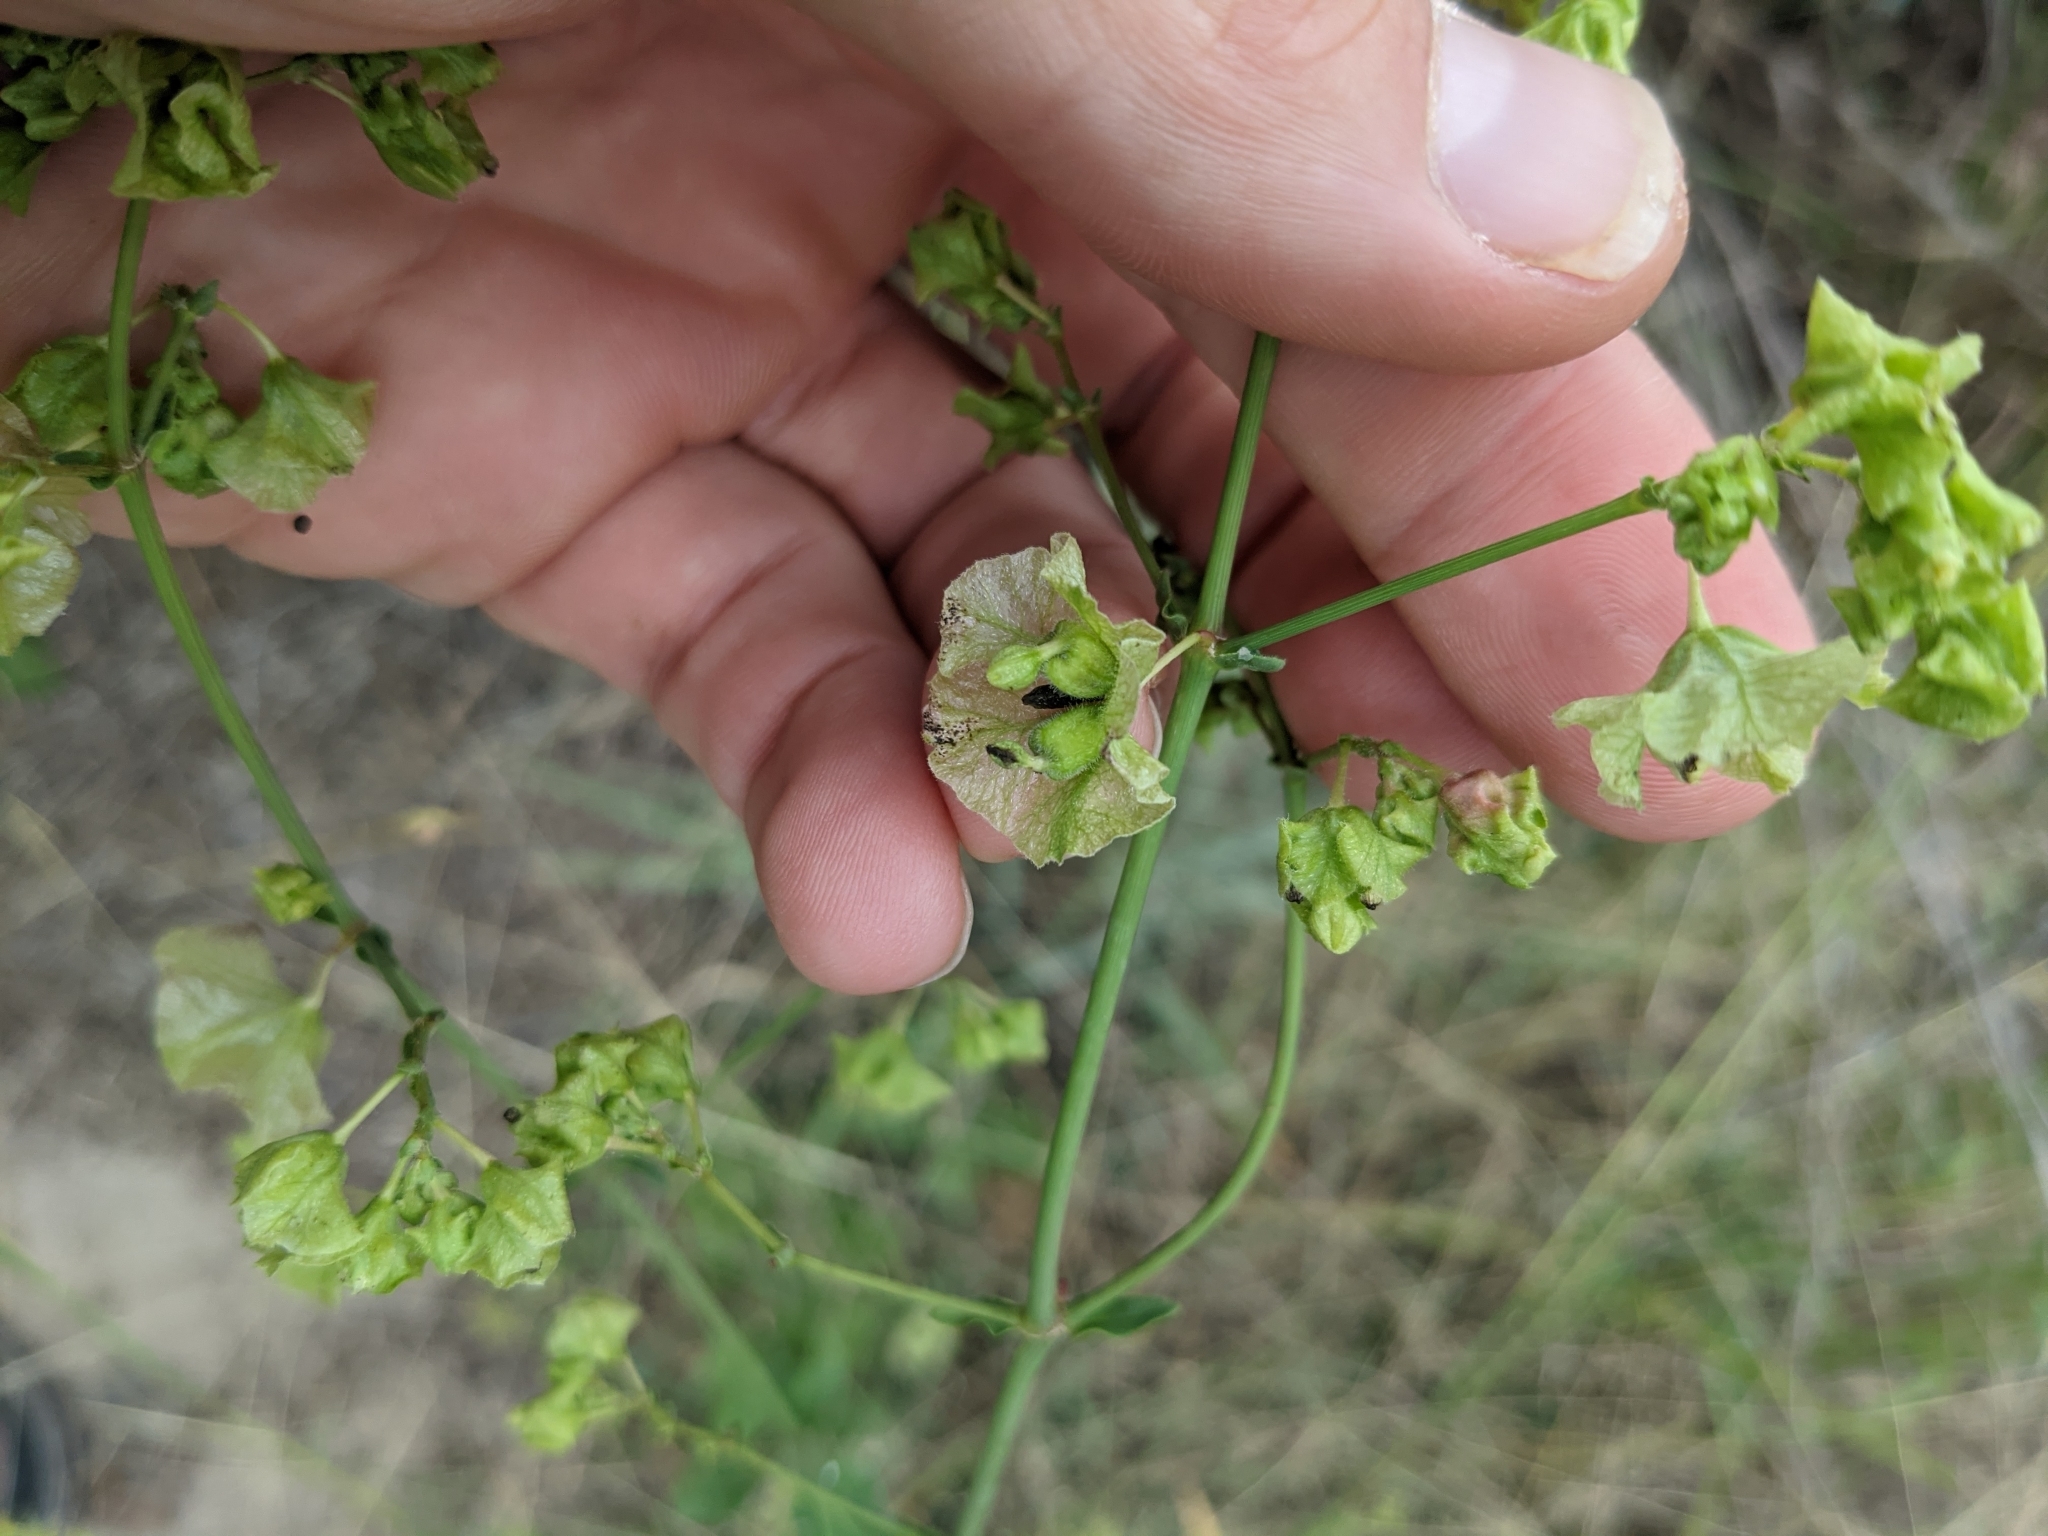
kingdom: Plantae
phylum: Tracheophyta
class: Magnoliopsida
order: Caryophyllales
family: Nyctaginaceae
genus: Mirabilis
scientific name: Mirabilis albida
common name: Hairy four-o'clock
